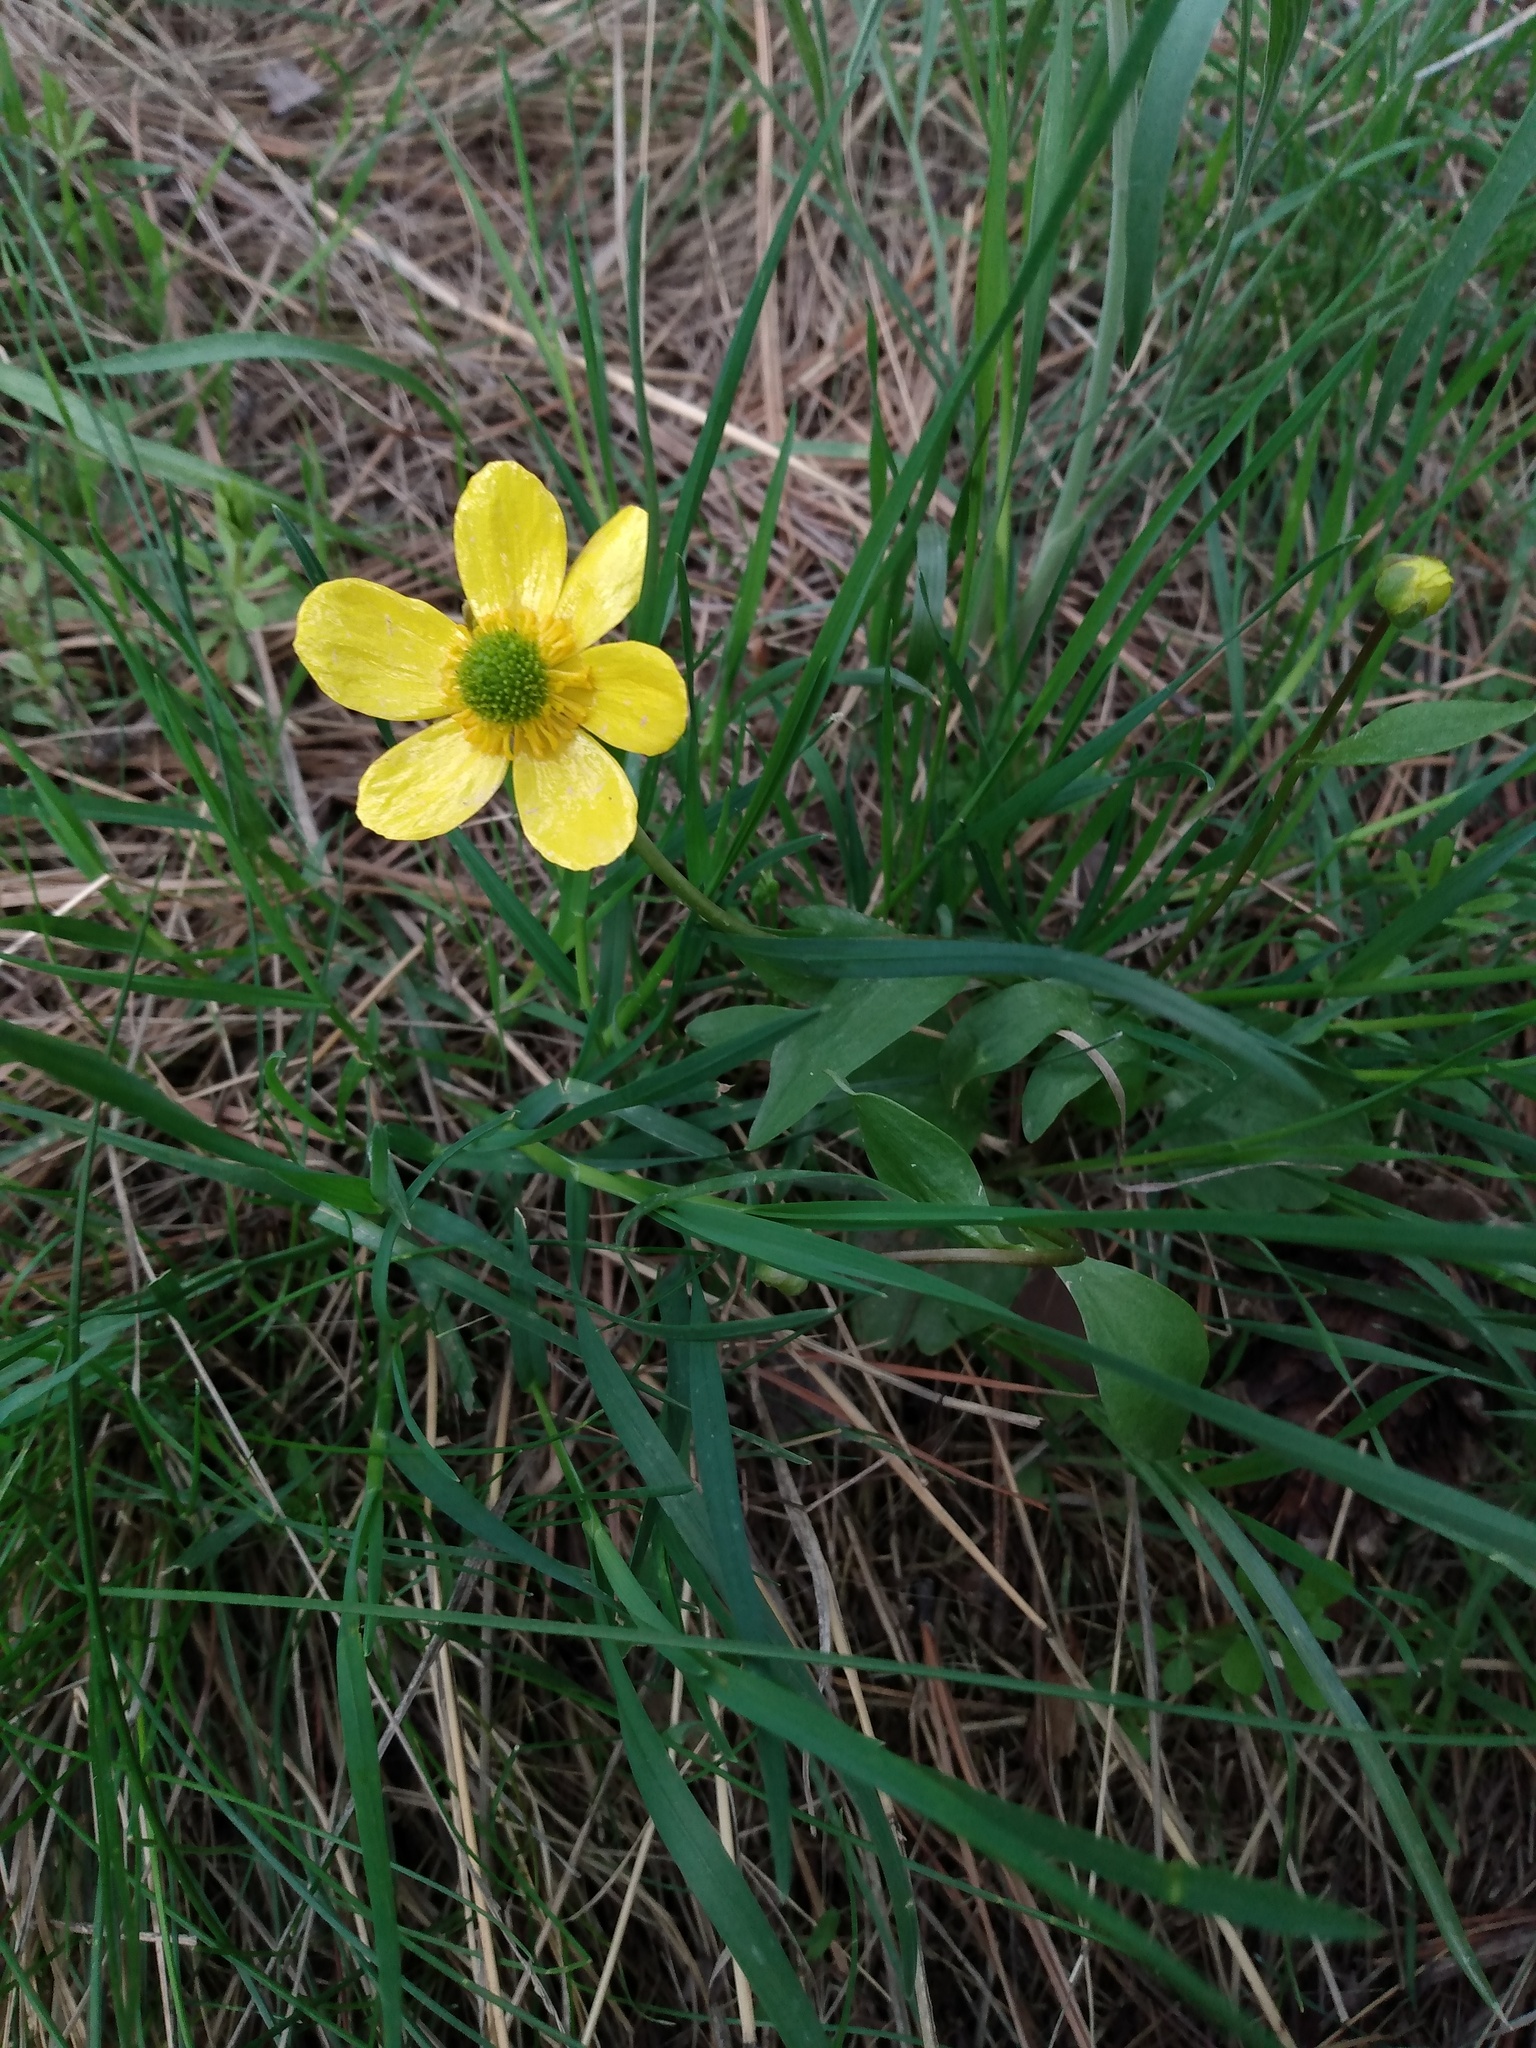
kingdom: Plantae
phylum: Tracheophyta
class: Magnoliopsida
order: Ranunculales
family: Ranunculaceae
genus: Ranunculus
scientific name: Ranunculus glaberrimus
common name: Sagebrush buttercup
